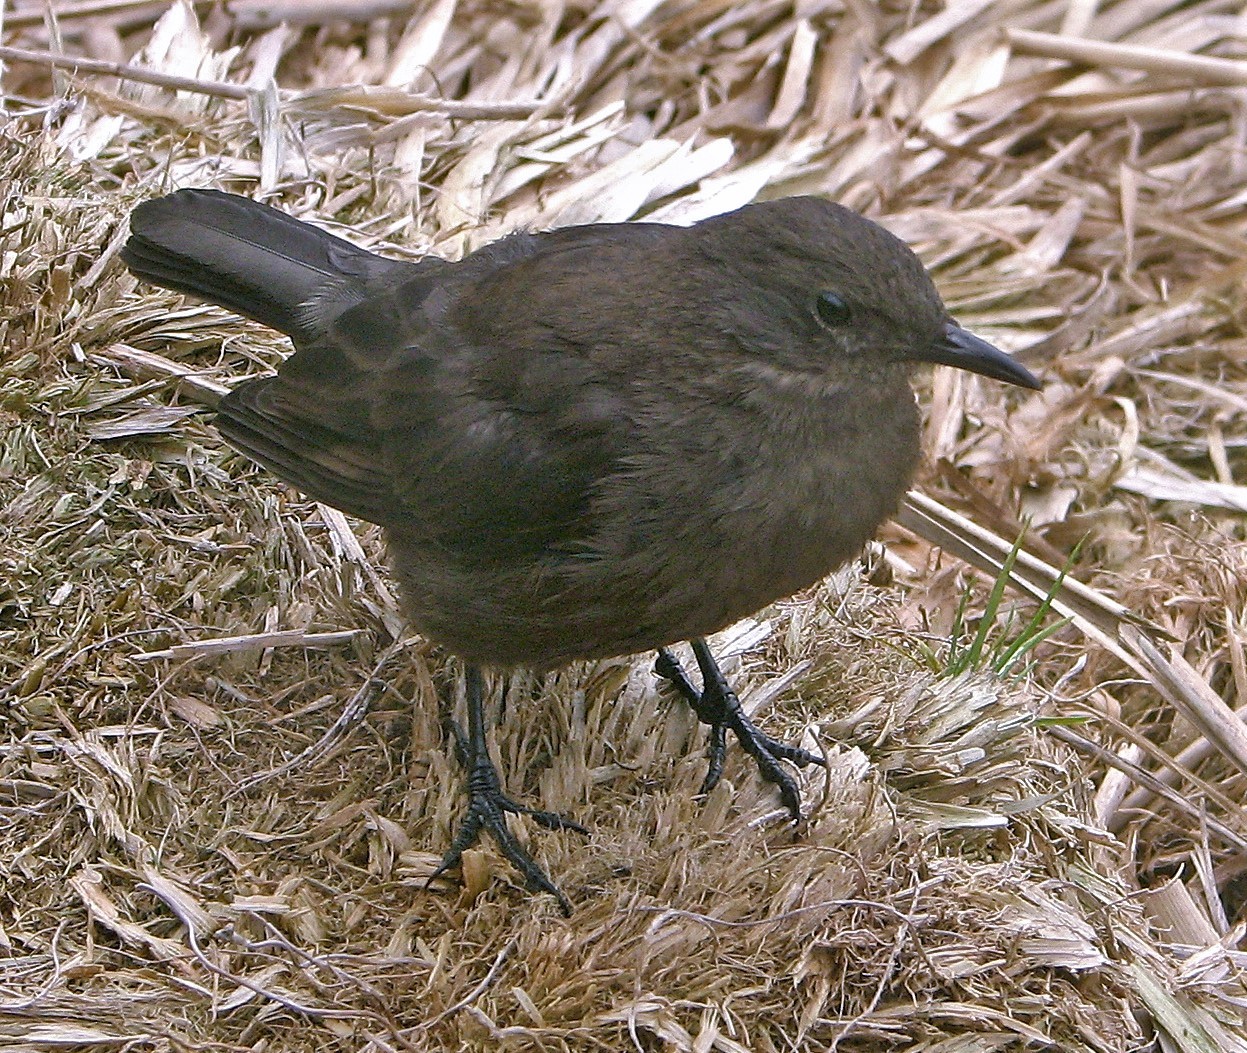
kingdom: Animalia
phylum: Chordata
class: Aves
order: Passeriformes
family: Furnariidae
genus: Cinclodes
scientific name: Cinclodes antarcticus
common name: Blackish cinclodes
